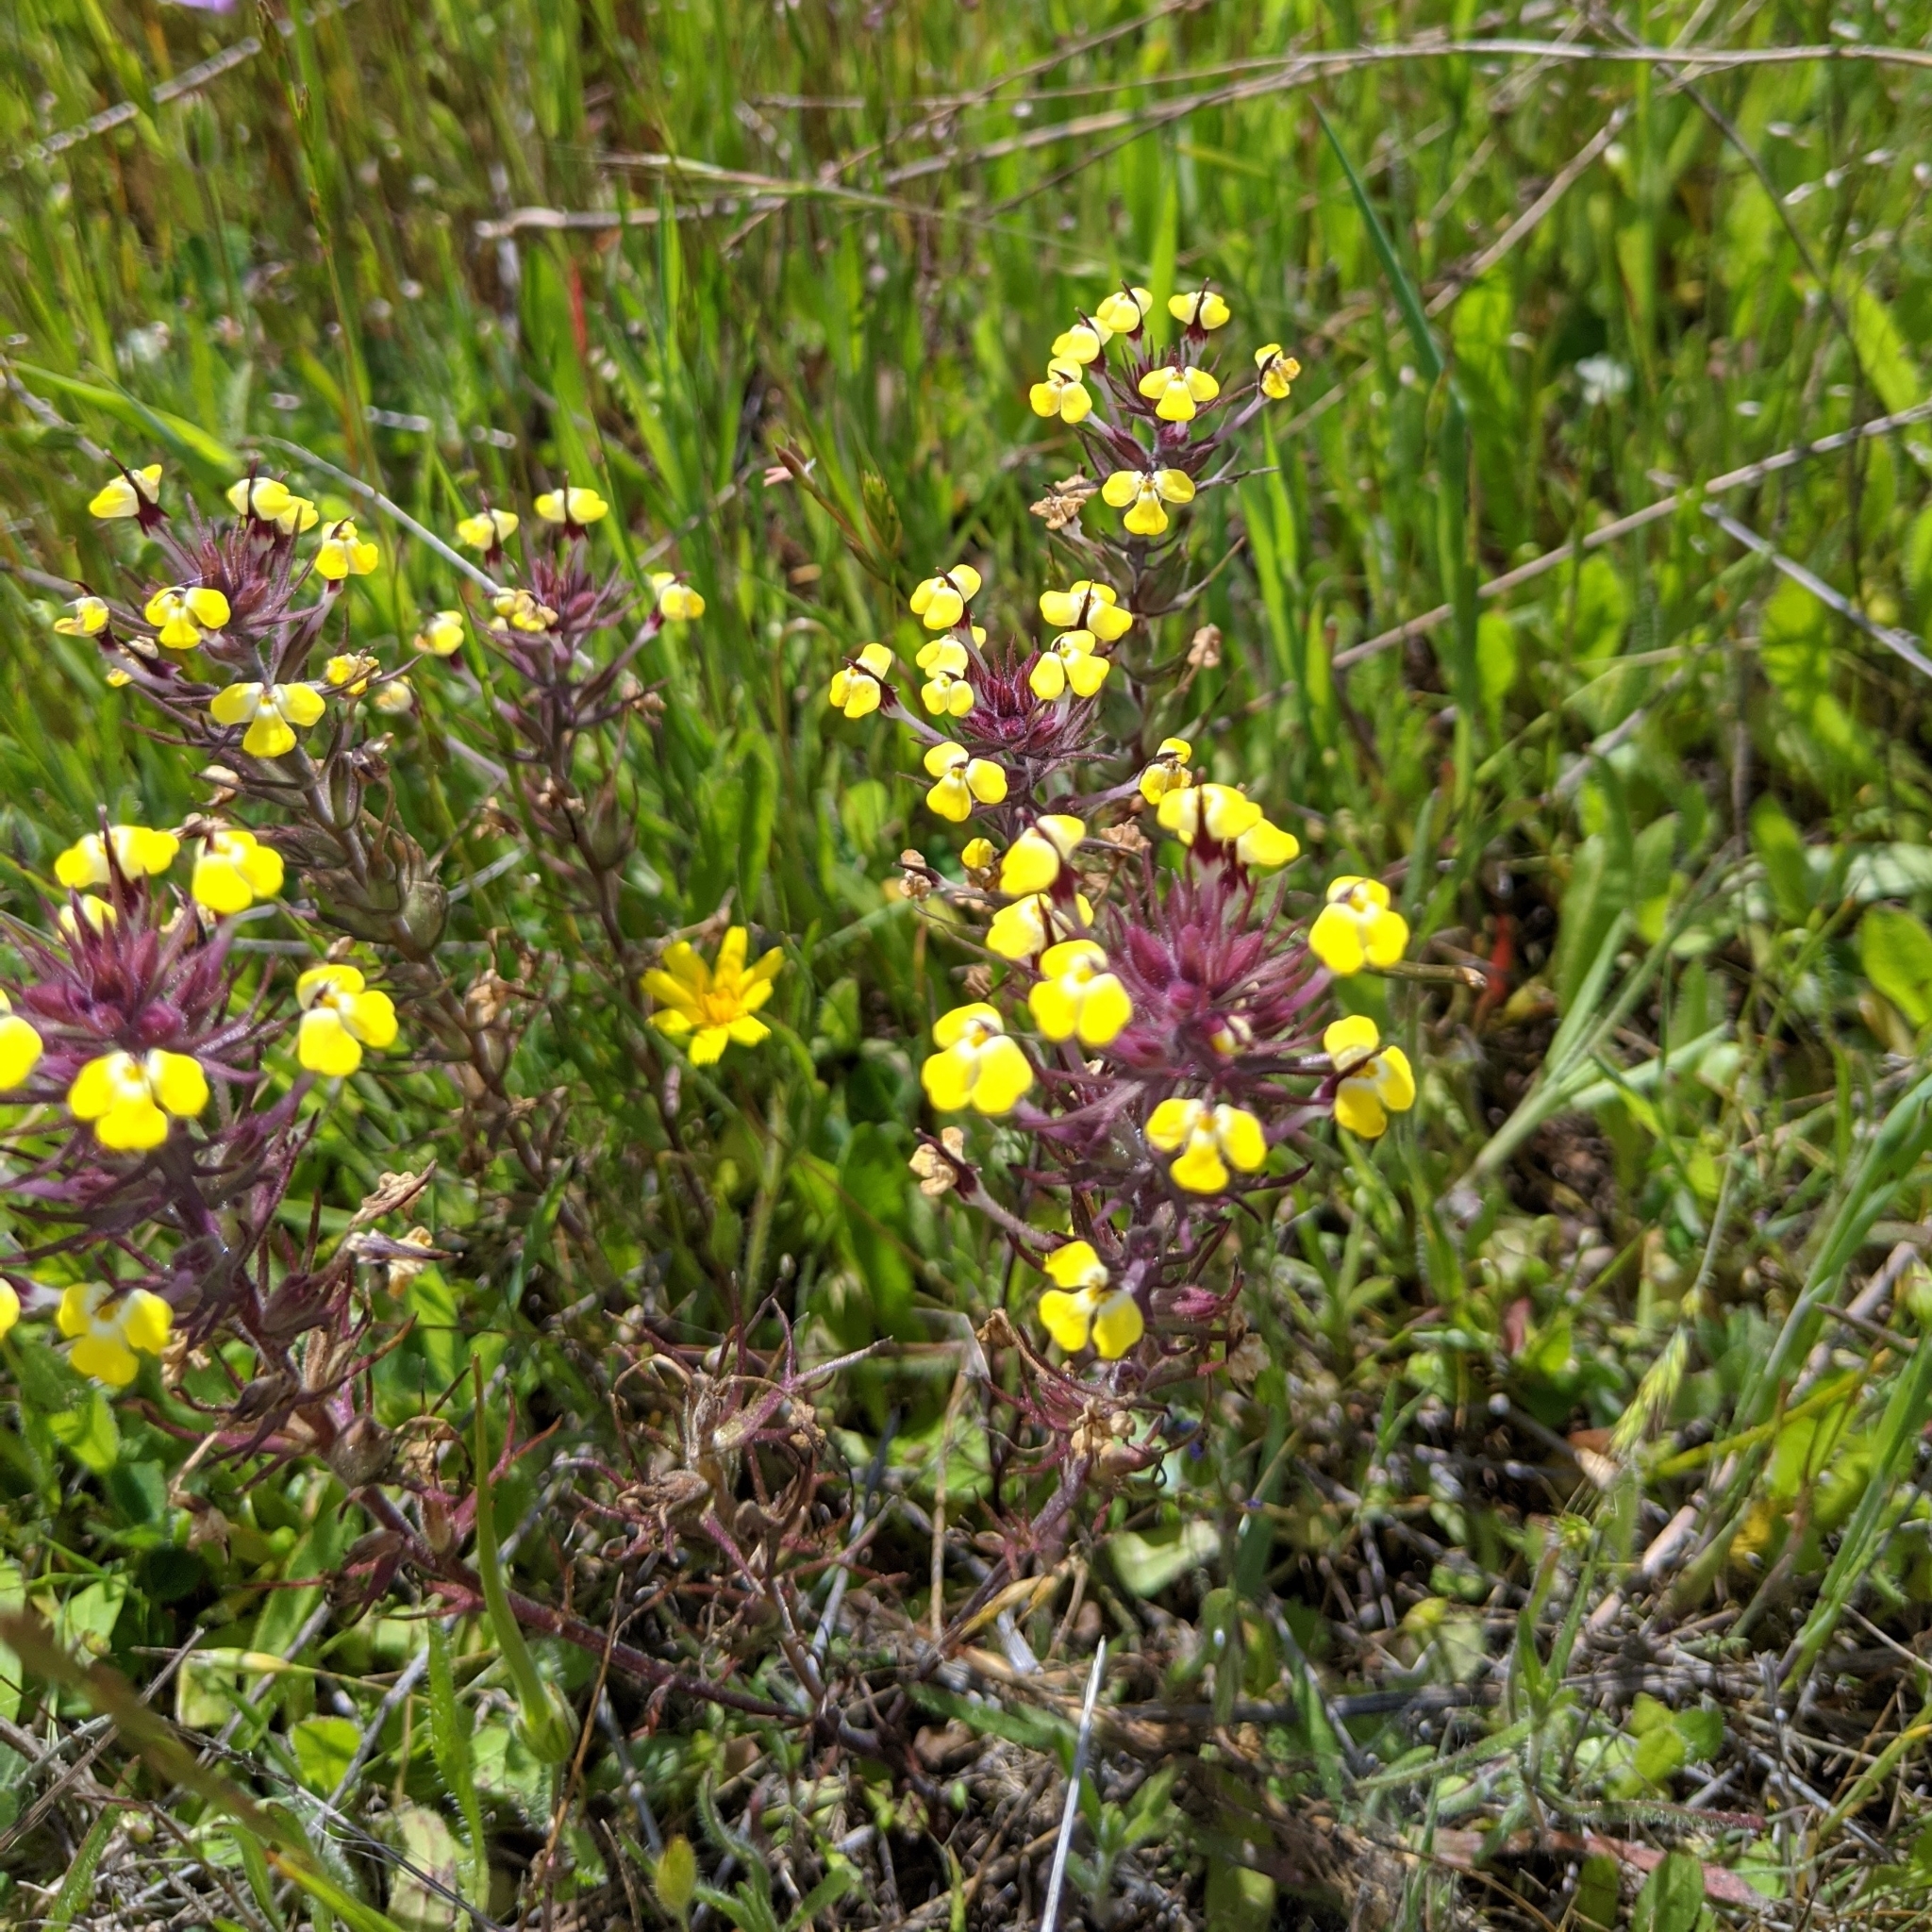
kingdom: Plantae
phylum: Tracheophyta
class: Magnoliopsida
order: Lamiales
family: Orobanchaceae
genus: Triphysaria
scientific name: Triphysaria eriantha
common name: Johnny-tuck
